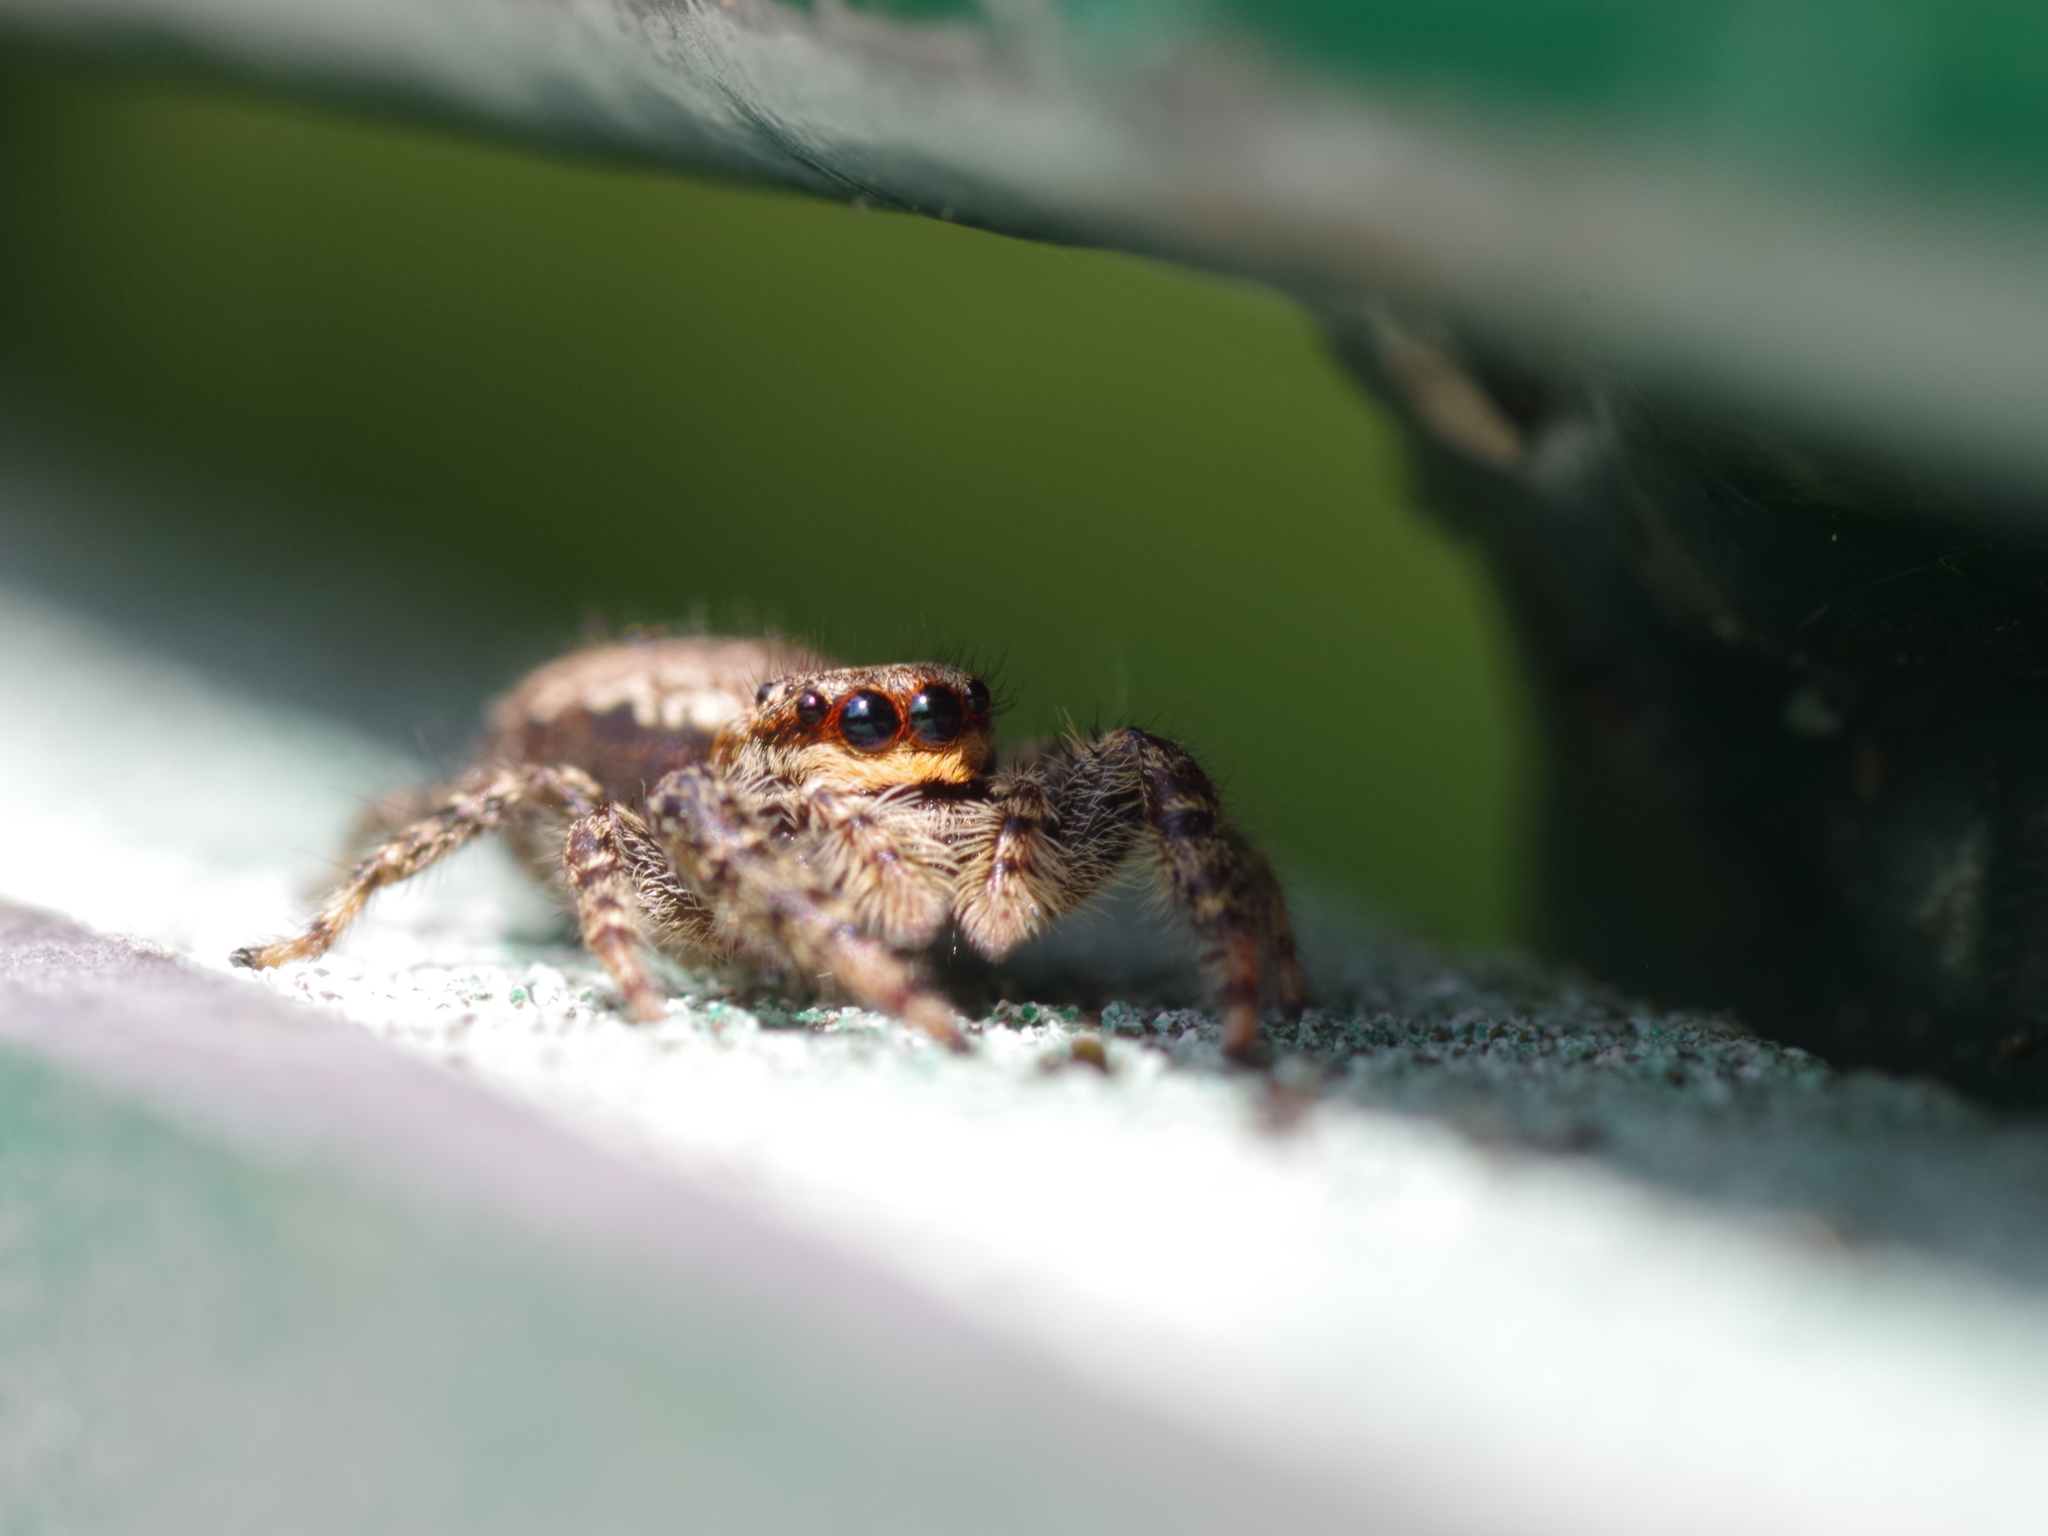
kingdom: Animalia
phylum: Arthropoda
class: Arachnida
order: Araneae
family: Salticidae
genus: Marpissa
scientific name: Marpissa muscosa
